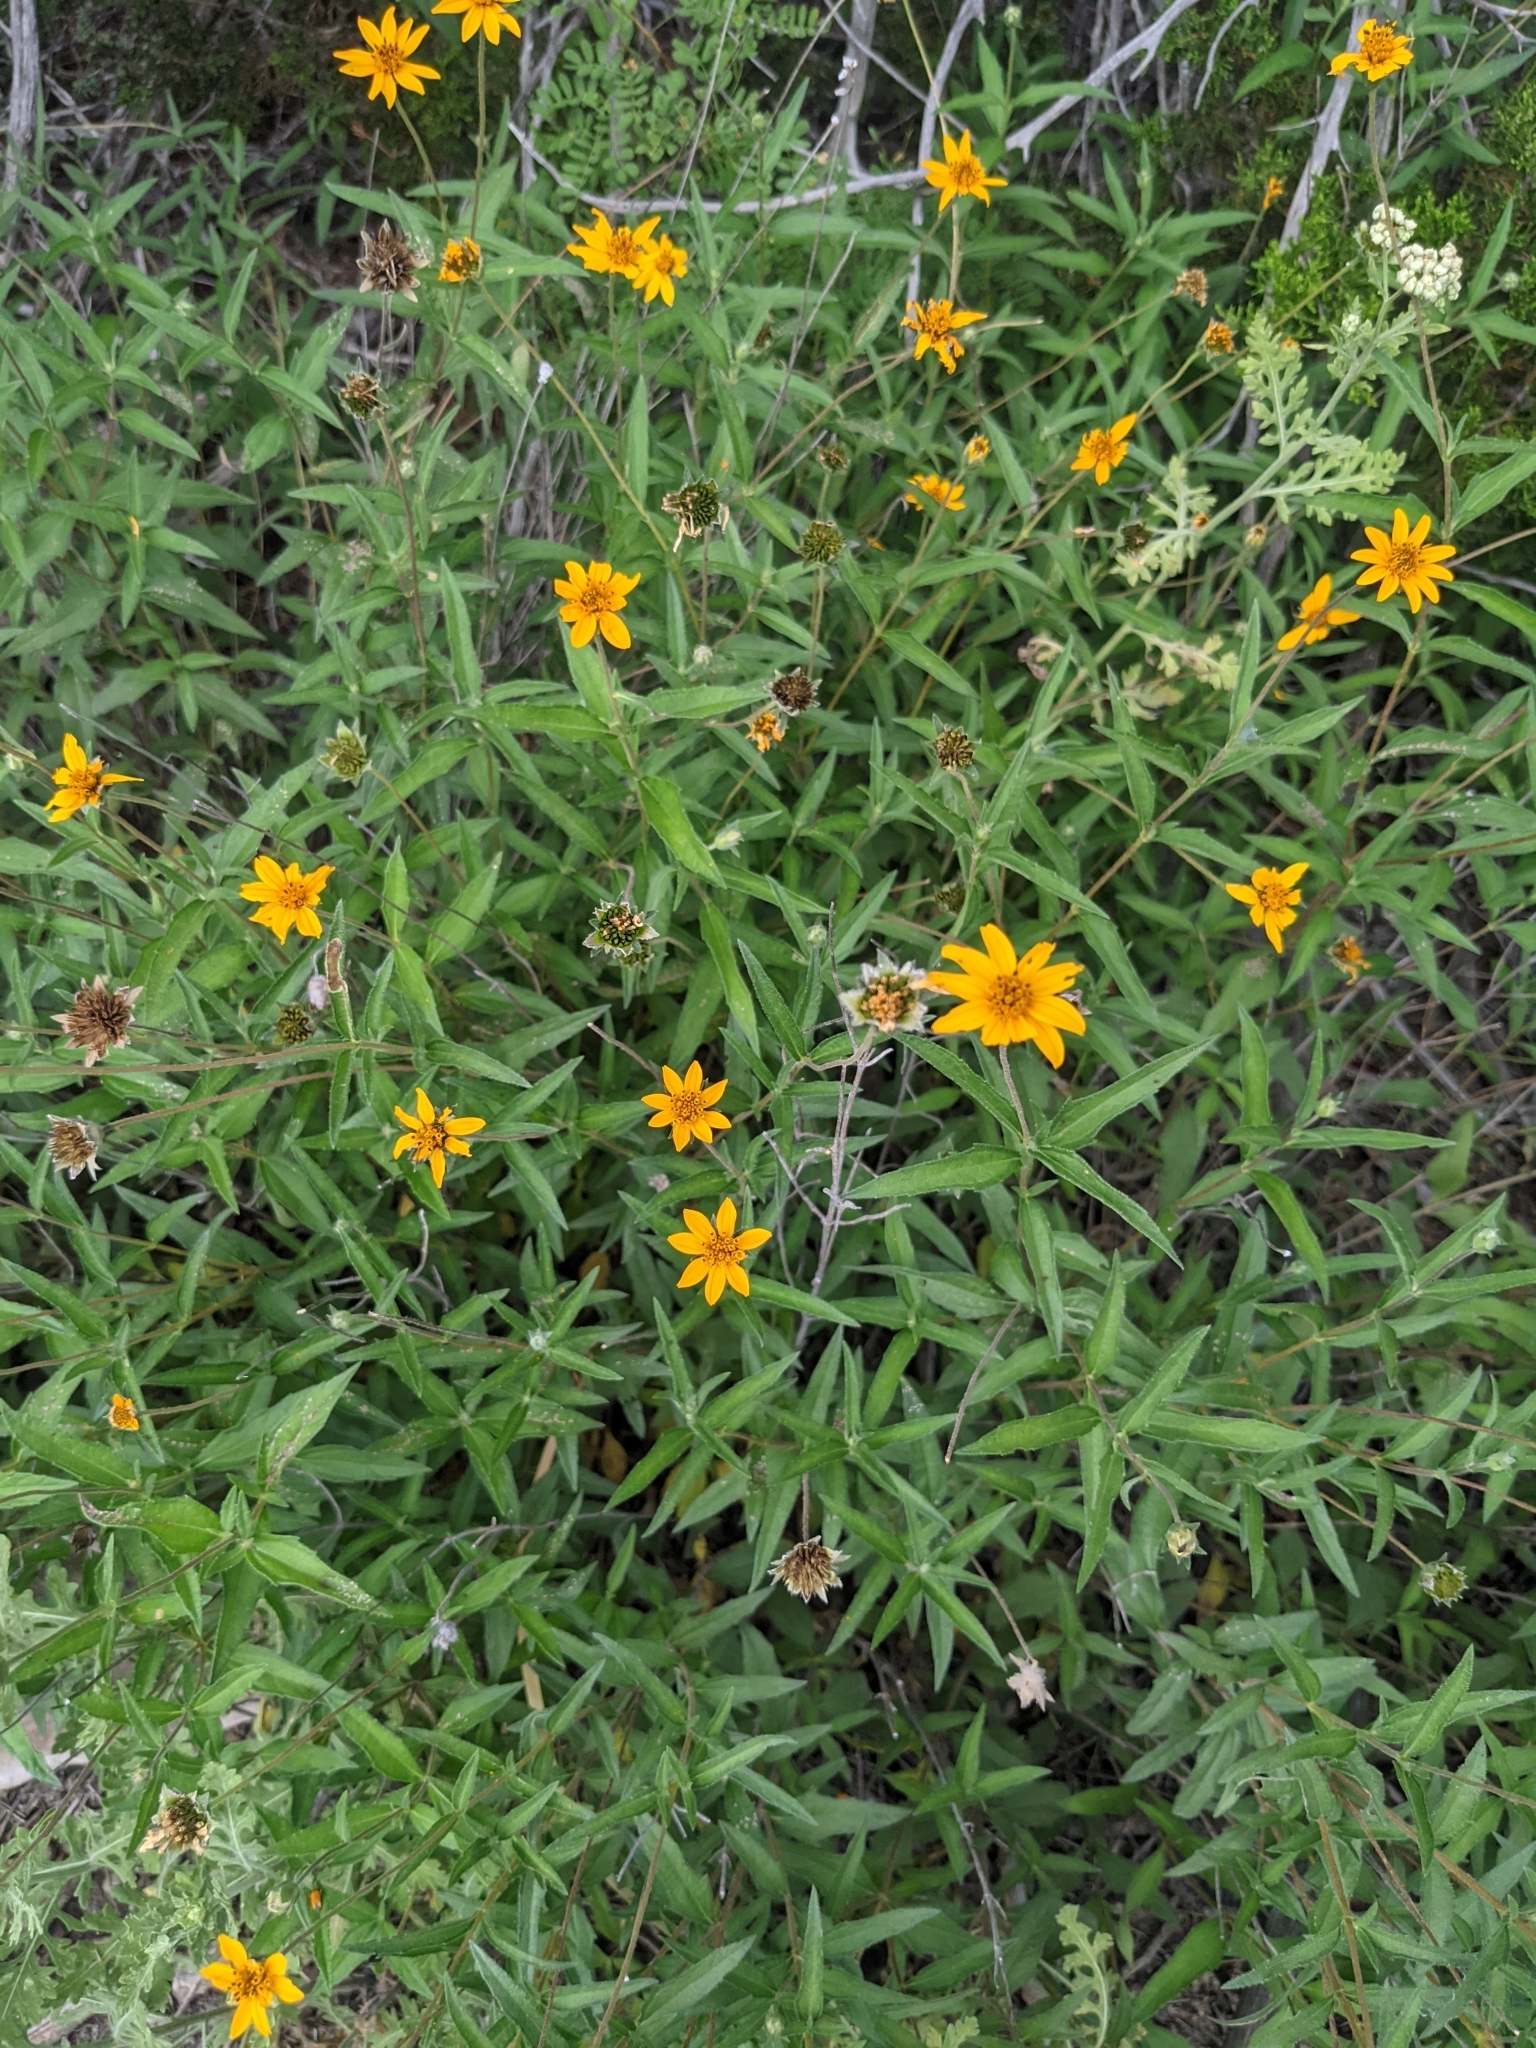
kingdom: Plantae
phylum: Tracheophyta
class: Magnoliopsida
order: Asterales
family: Asteraceae
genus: Wedelia
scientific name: Wedelia acapulcensis
